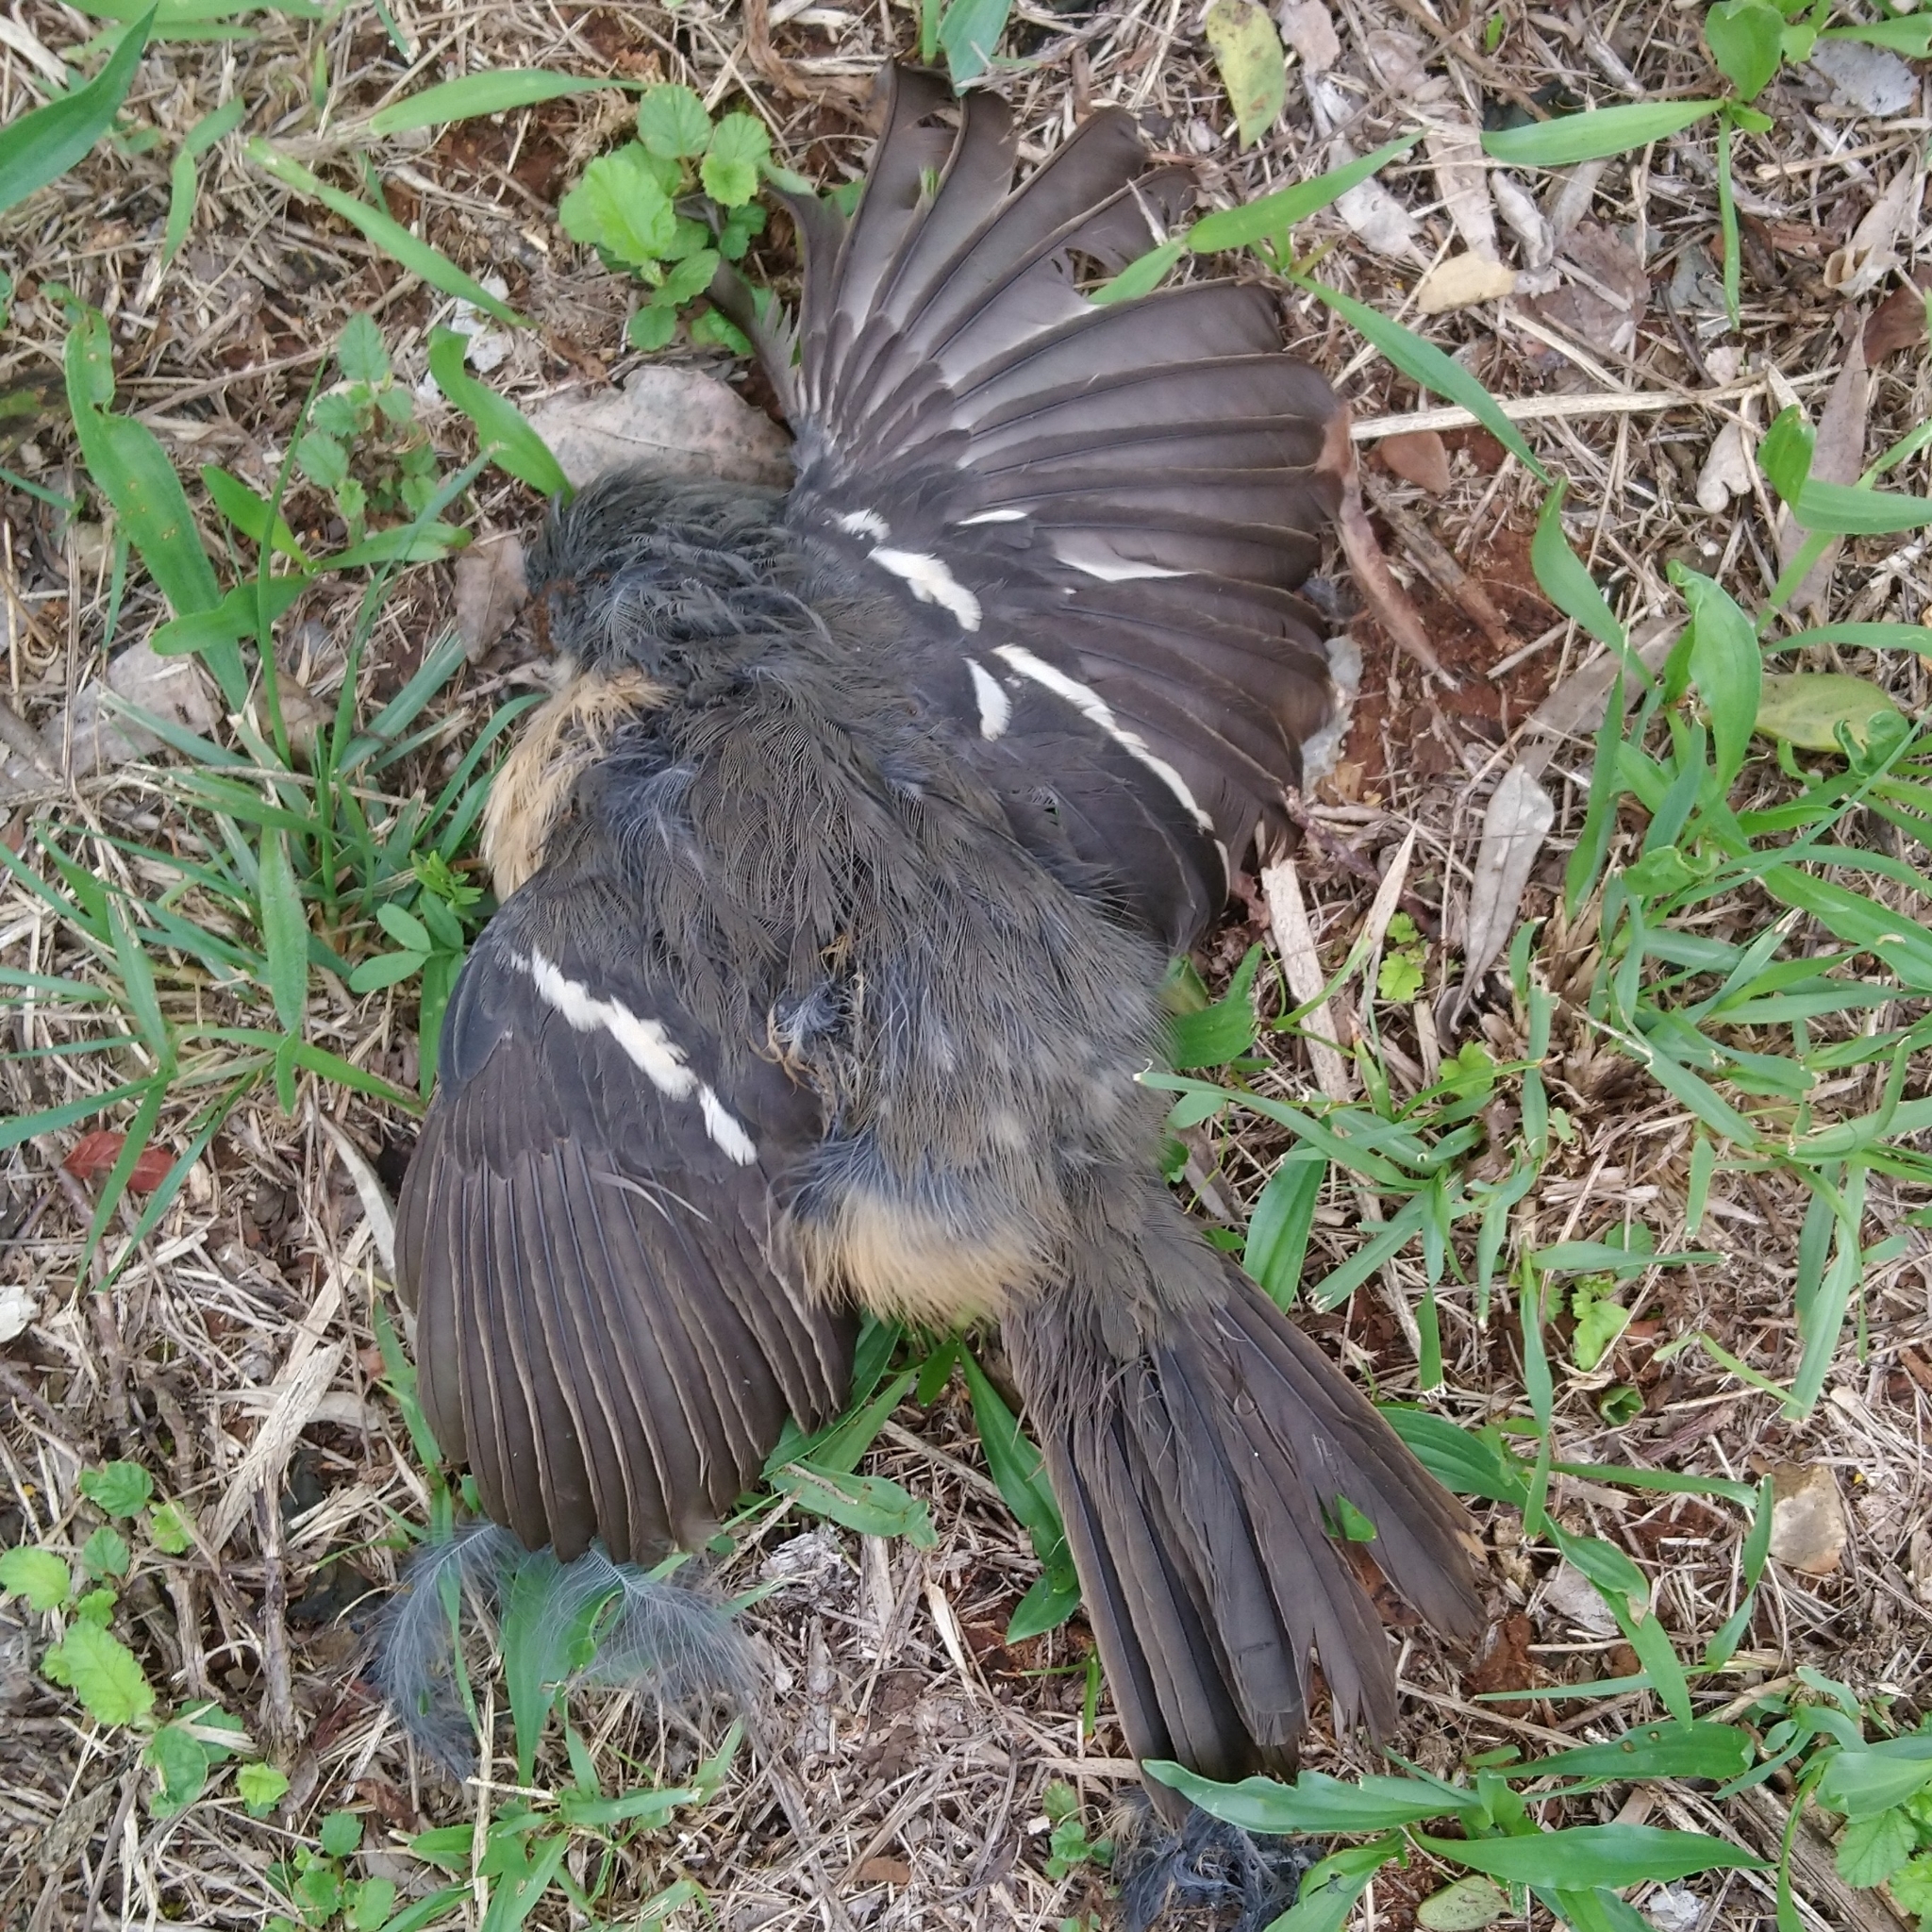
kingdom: Animalia
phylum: Chordata
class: Aves
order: Passeriformes
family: Malaconotidae
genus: Laniarius
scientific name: Laniarius ferrugineus
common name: Southern boubou
